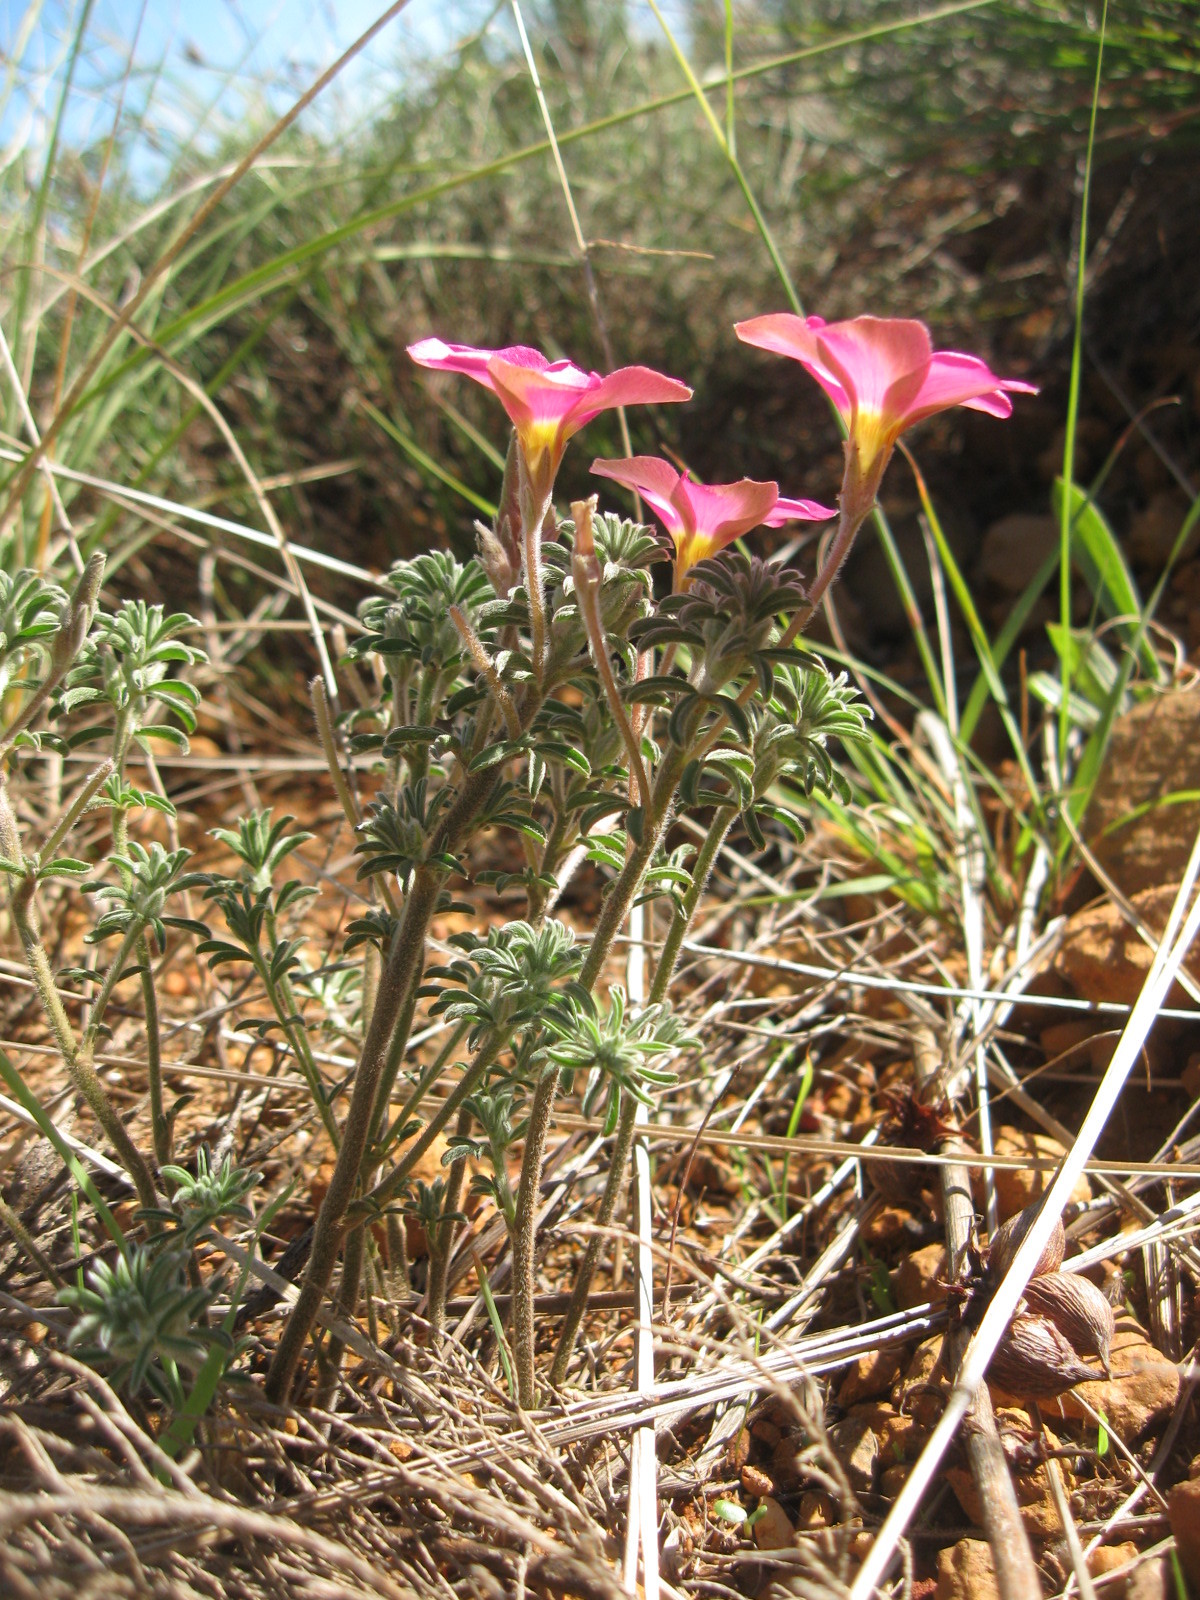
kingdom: Plantae
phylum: Tracheophyta
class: Magnoliopsida
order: Oxalidales
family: Oxalidaceae
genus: Oxalis
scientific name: Oxalis hirta
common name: Tropical woodsorrel
